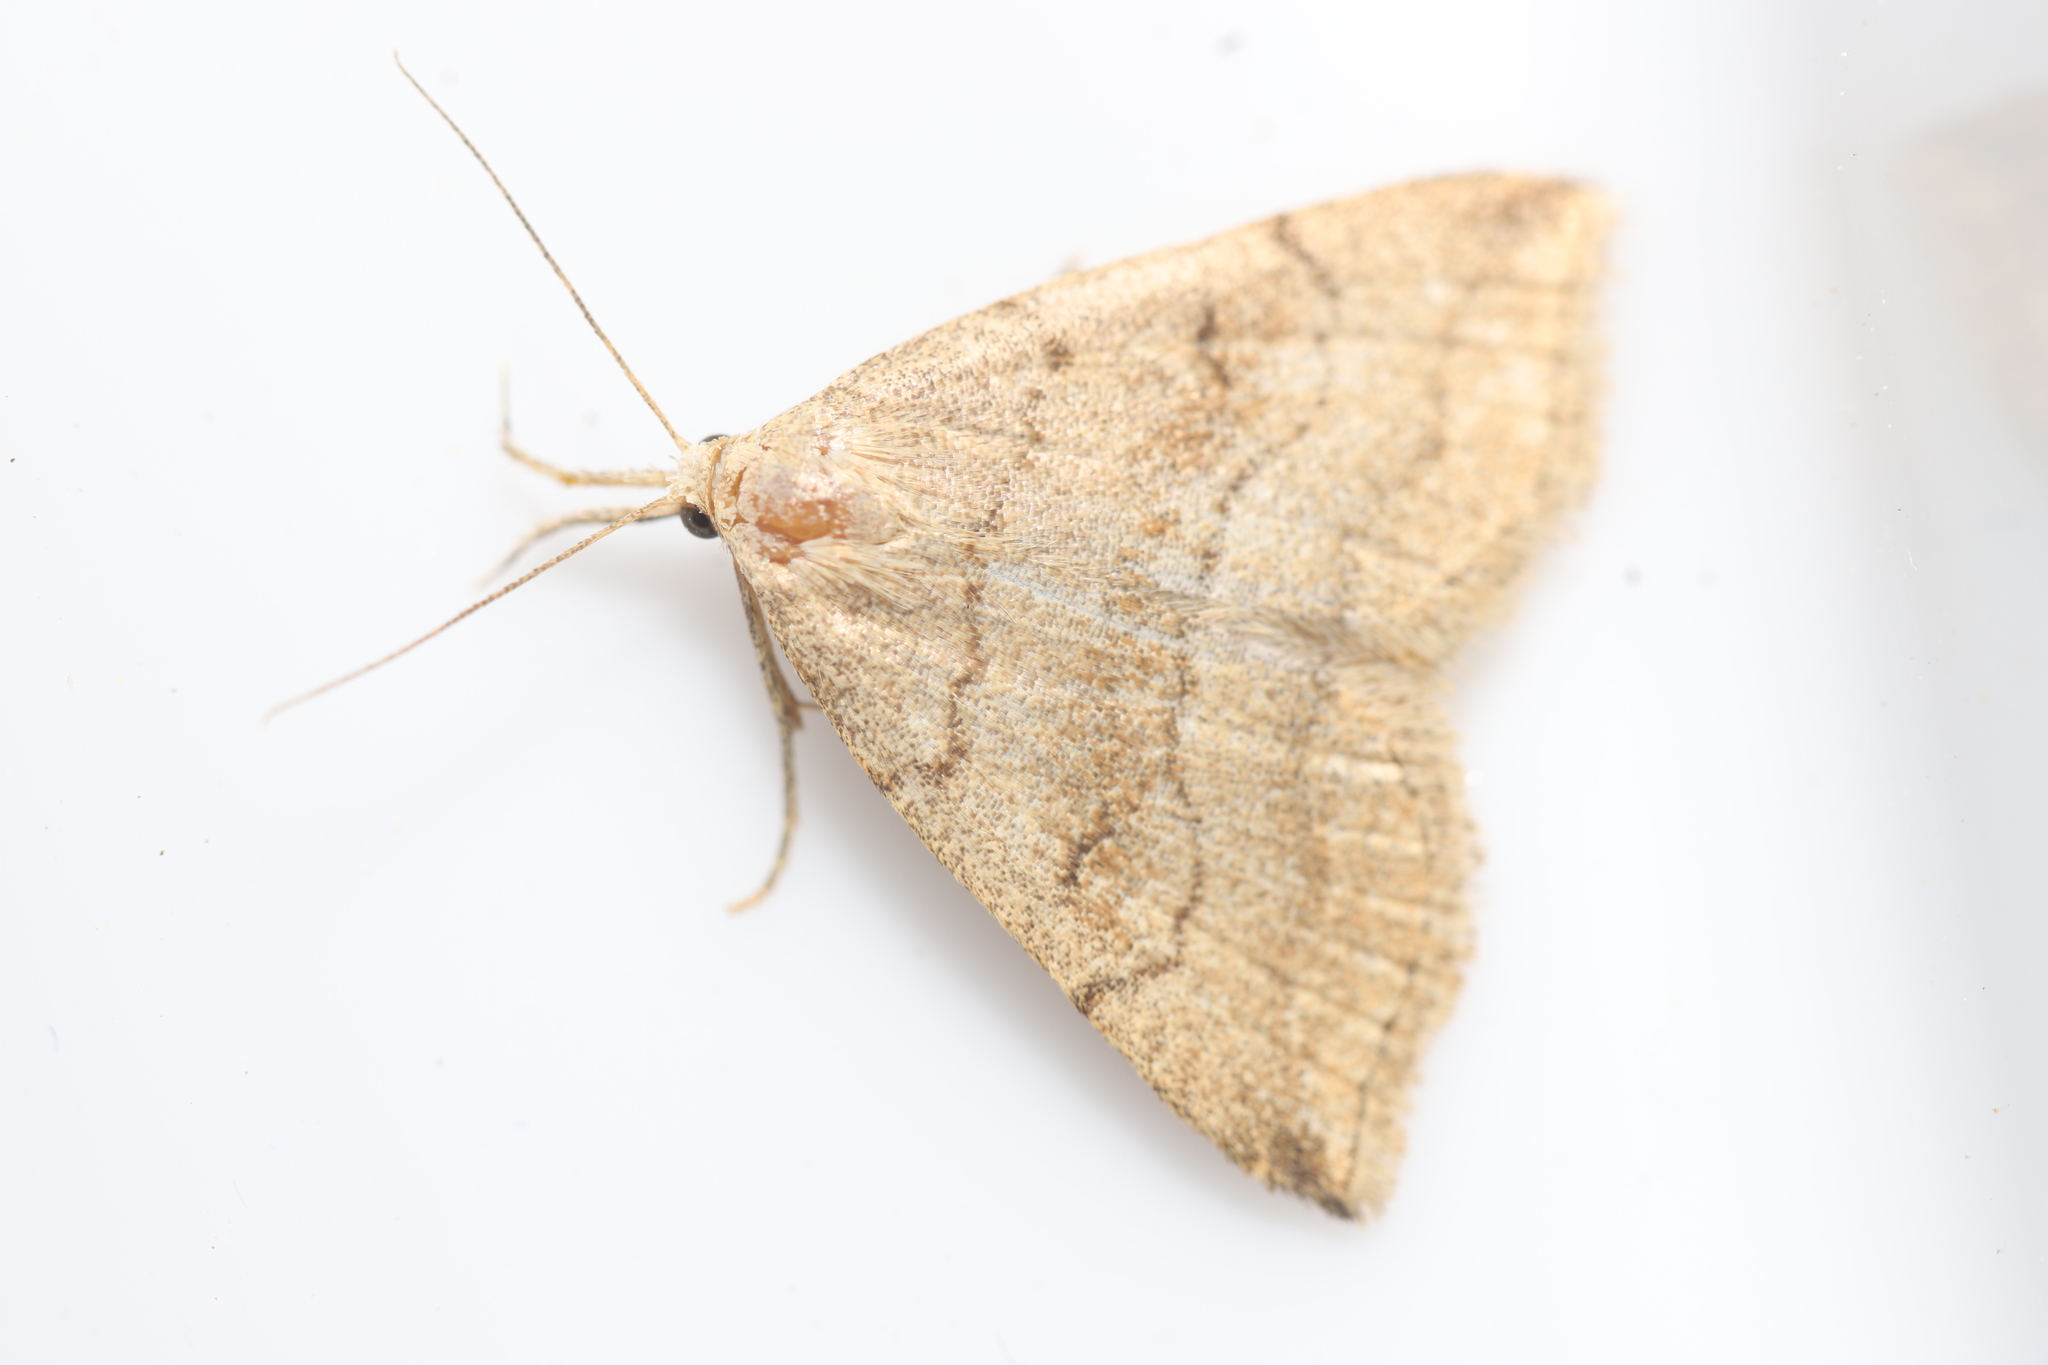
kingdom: Animalia
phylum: Arthropoda
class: Insecta
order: Lepidoptera
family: Erebidae
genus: Phalaenostola
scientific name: Phalaenostola metonalis
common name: Pale phalaenostola moth
